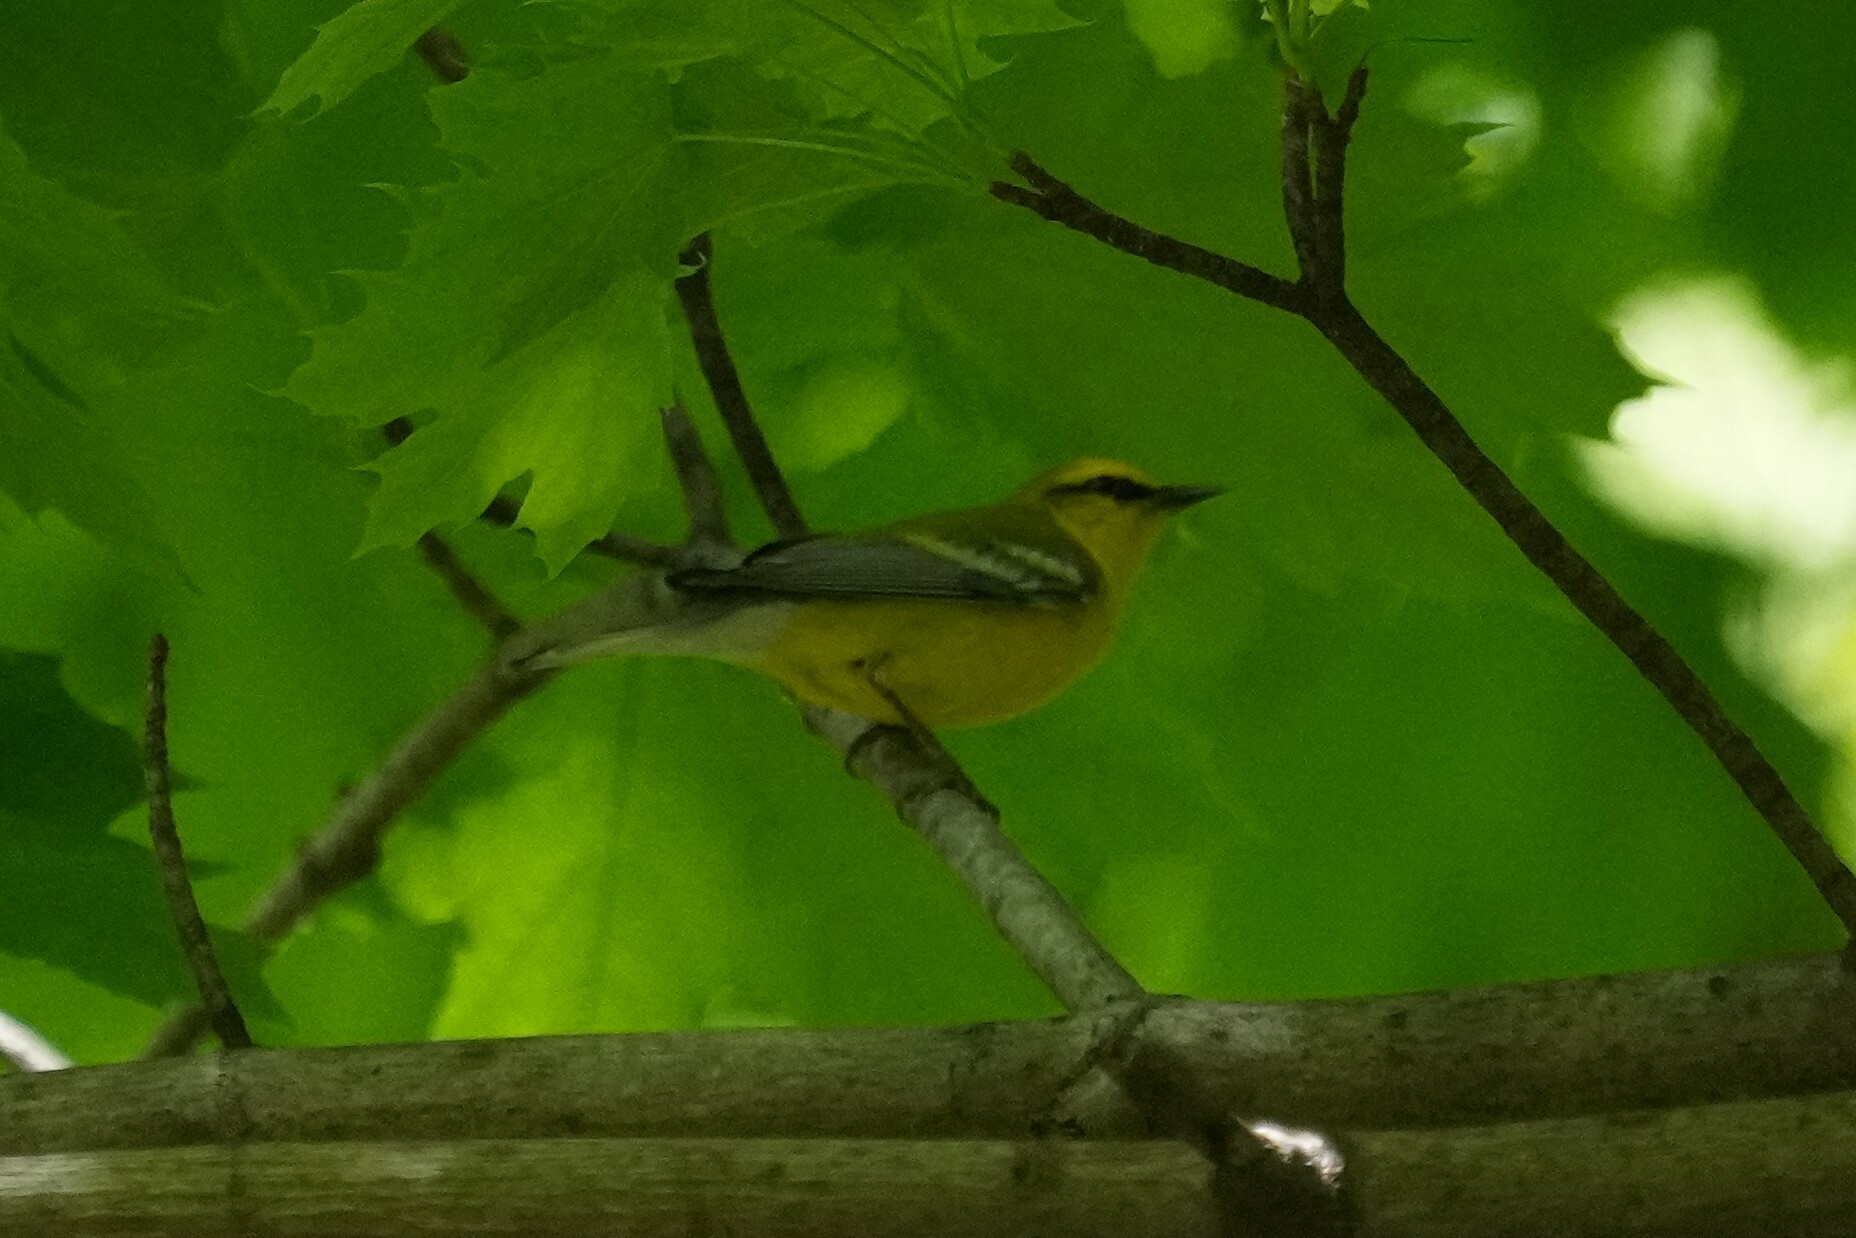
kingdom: Animalia
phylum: Chordata
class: Aves
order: Passeriformes
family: Parulidae
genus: Vermivora
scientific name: Vermivora cyanoptera
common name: Blue-winged warbler
